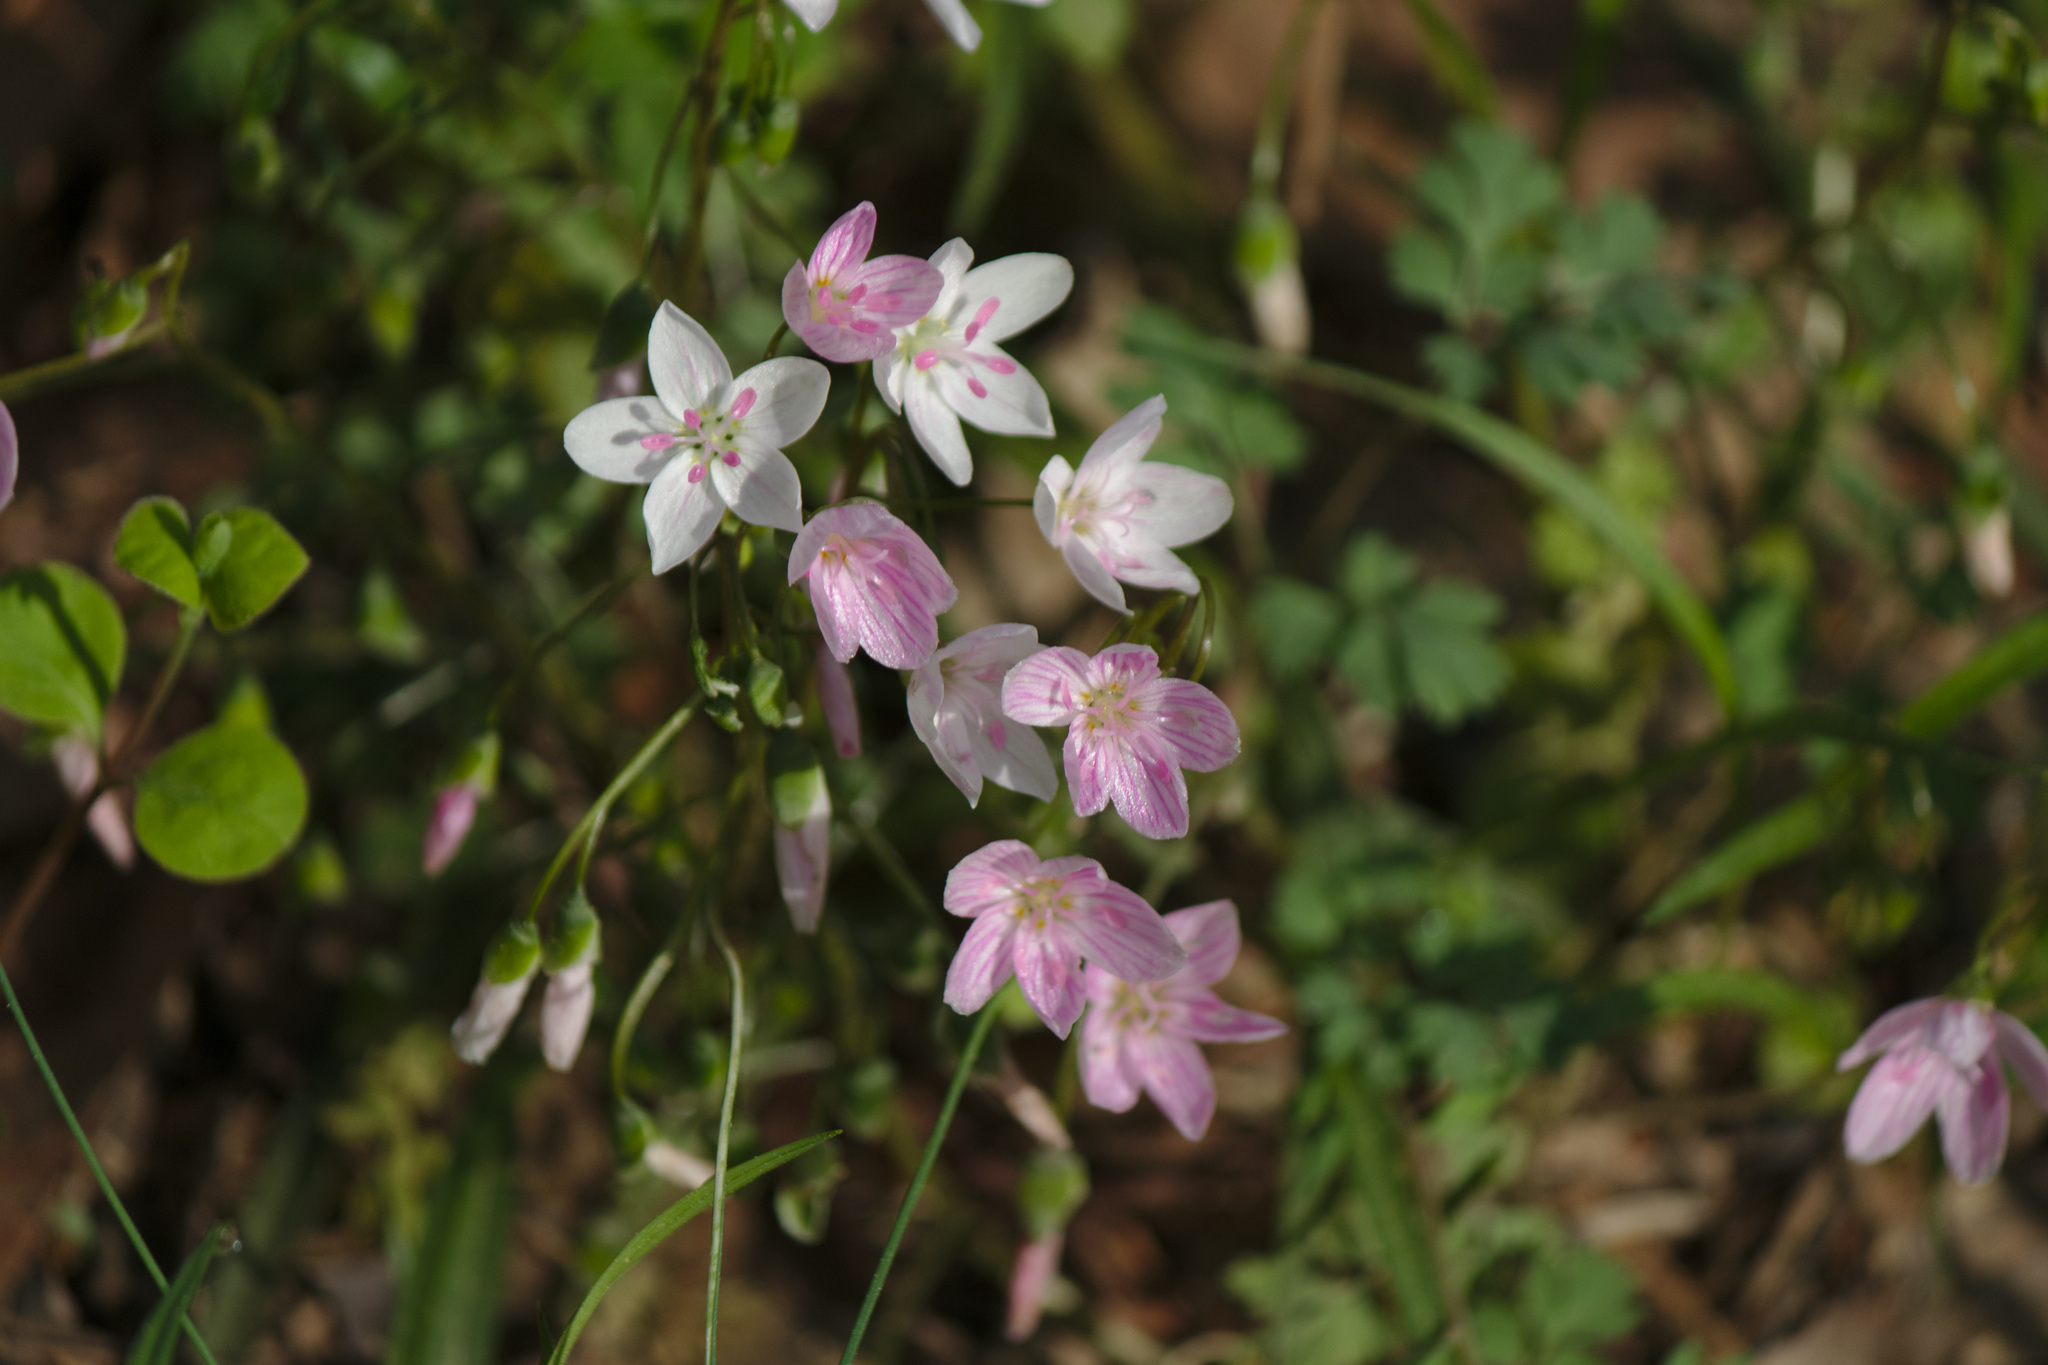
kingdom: Plantae
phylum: Tracheophyta
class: Magnoliopsida
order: Caryophyllales
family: Montiaceae
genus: Claytonia
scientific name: Claytonia virginica
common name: Virginia springbeauty
